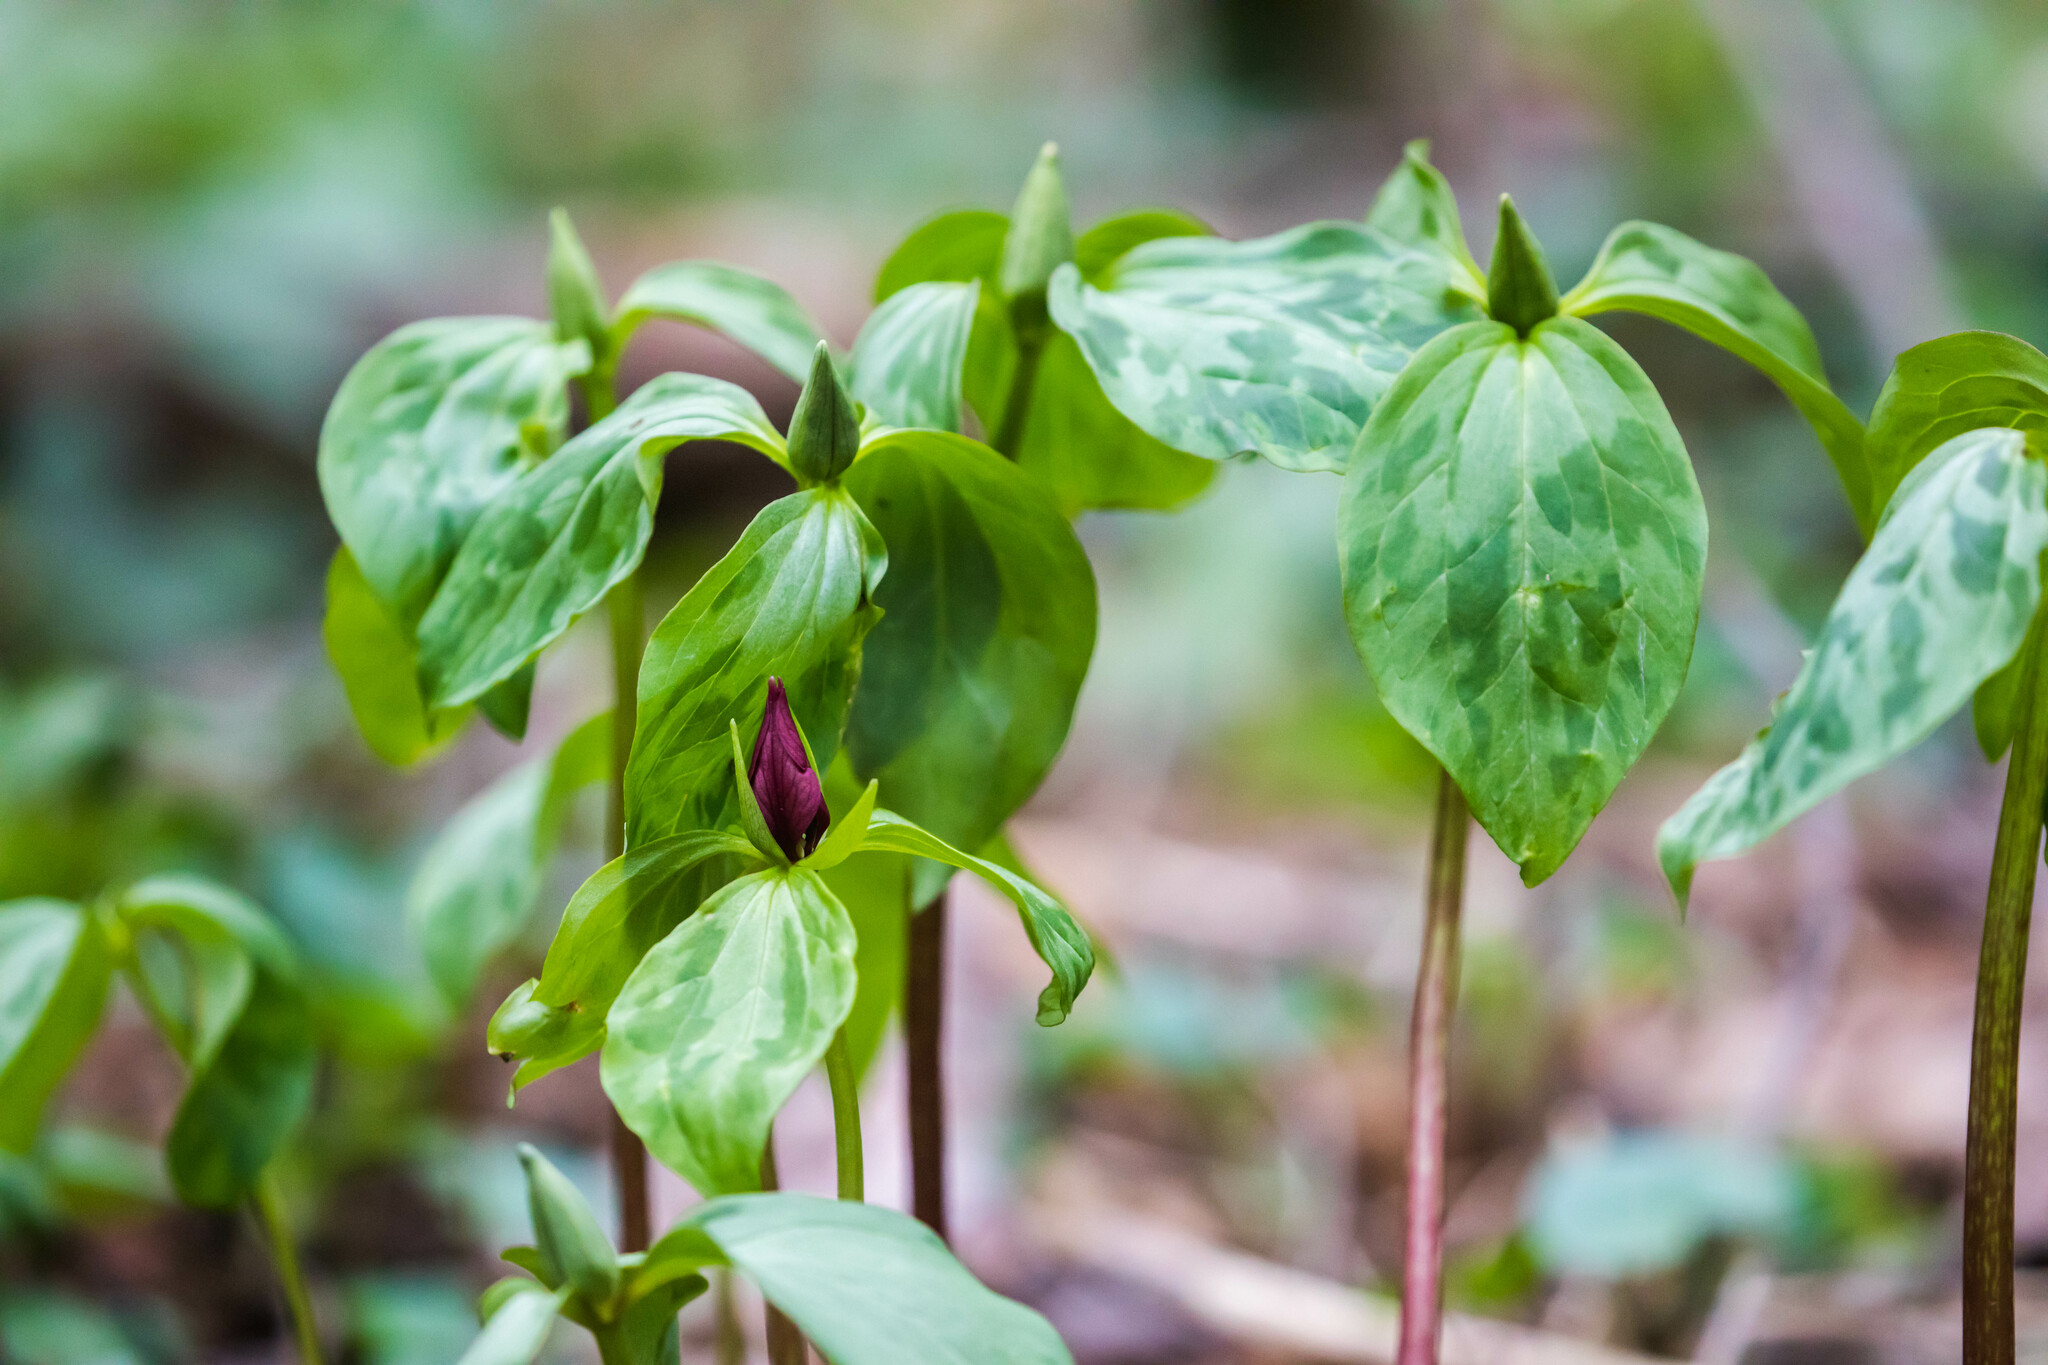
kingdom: Plantae
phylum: Tracheophyta
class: Liliopsida
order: Liliales
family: Melanthiaceae
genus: Trillium
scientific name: Trillium recurvatum
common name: Bloody butcher
